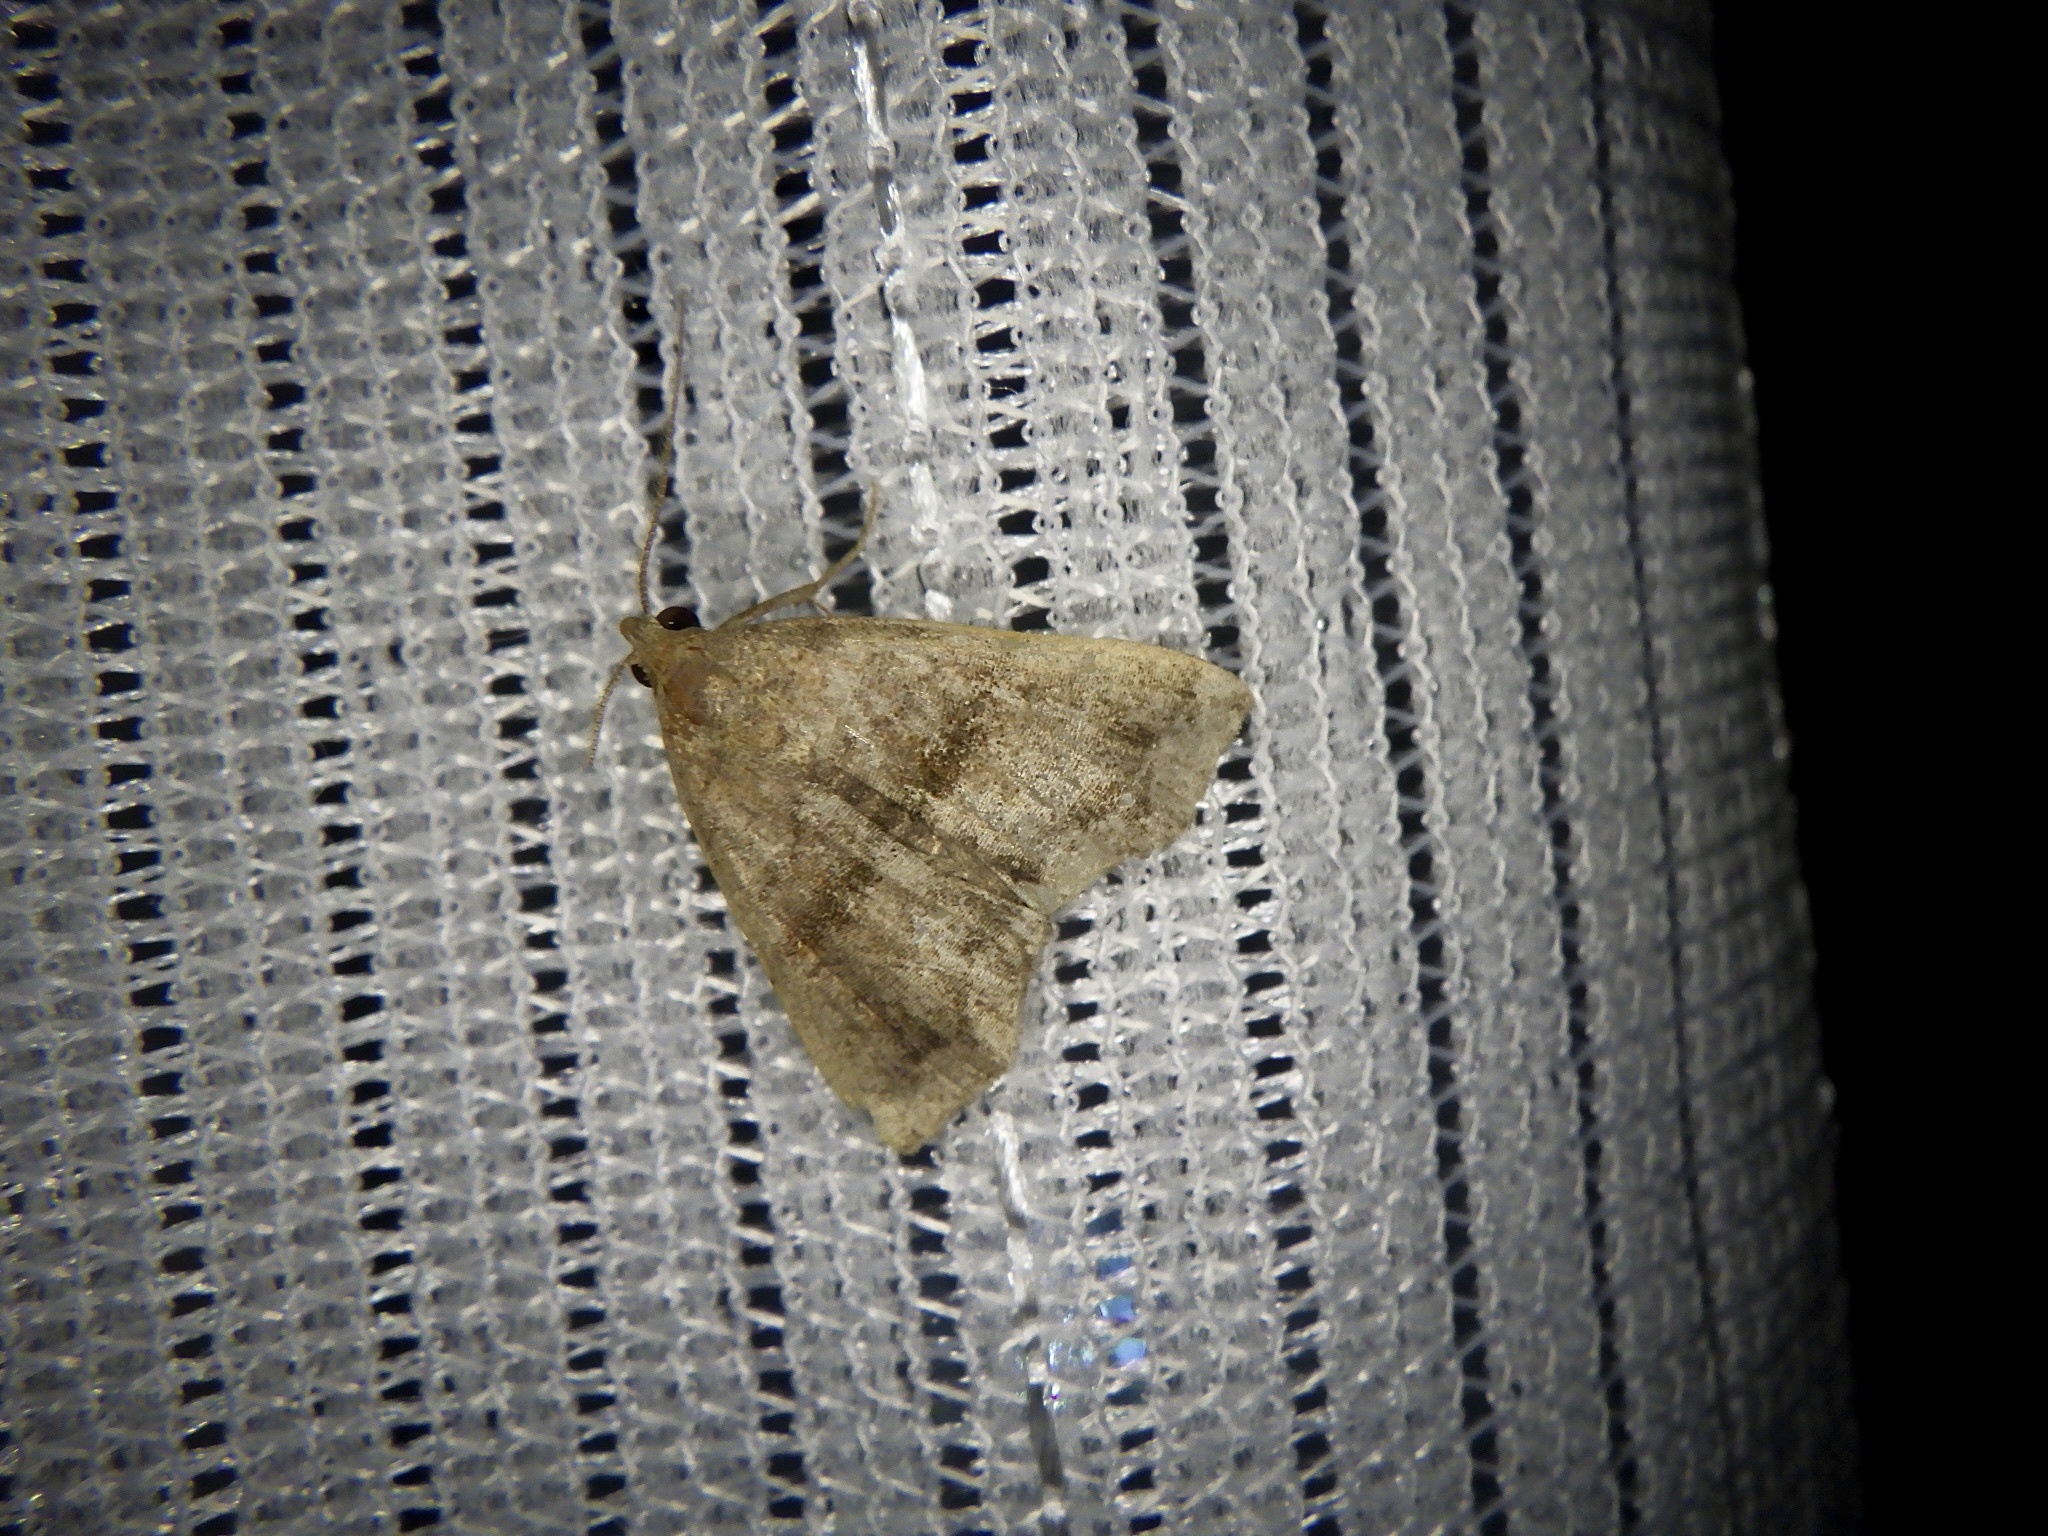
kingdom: Animalia
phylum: Arthropoda
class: Insecta
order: Lepidoptera
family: Erebidae
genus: Polypogon
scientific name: Polypogon Hipoepa fractalis
